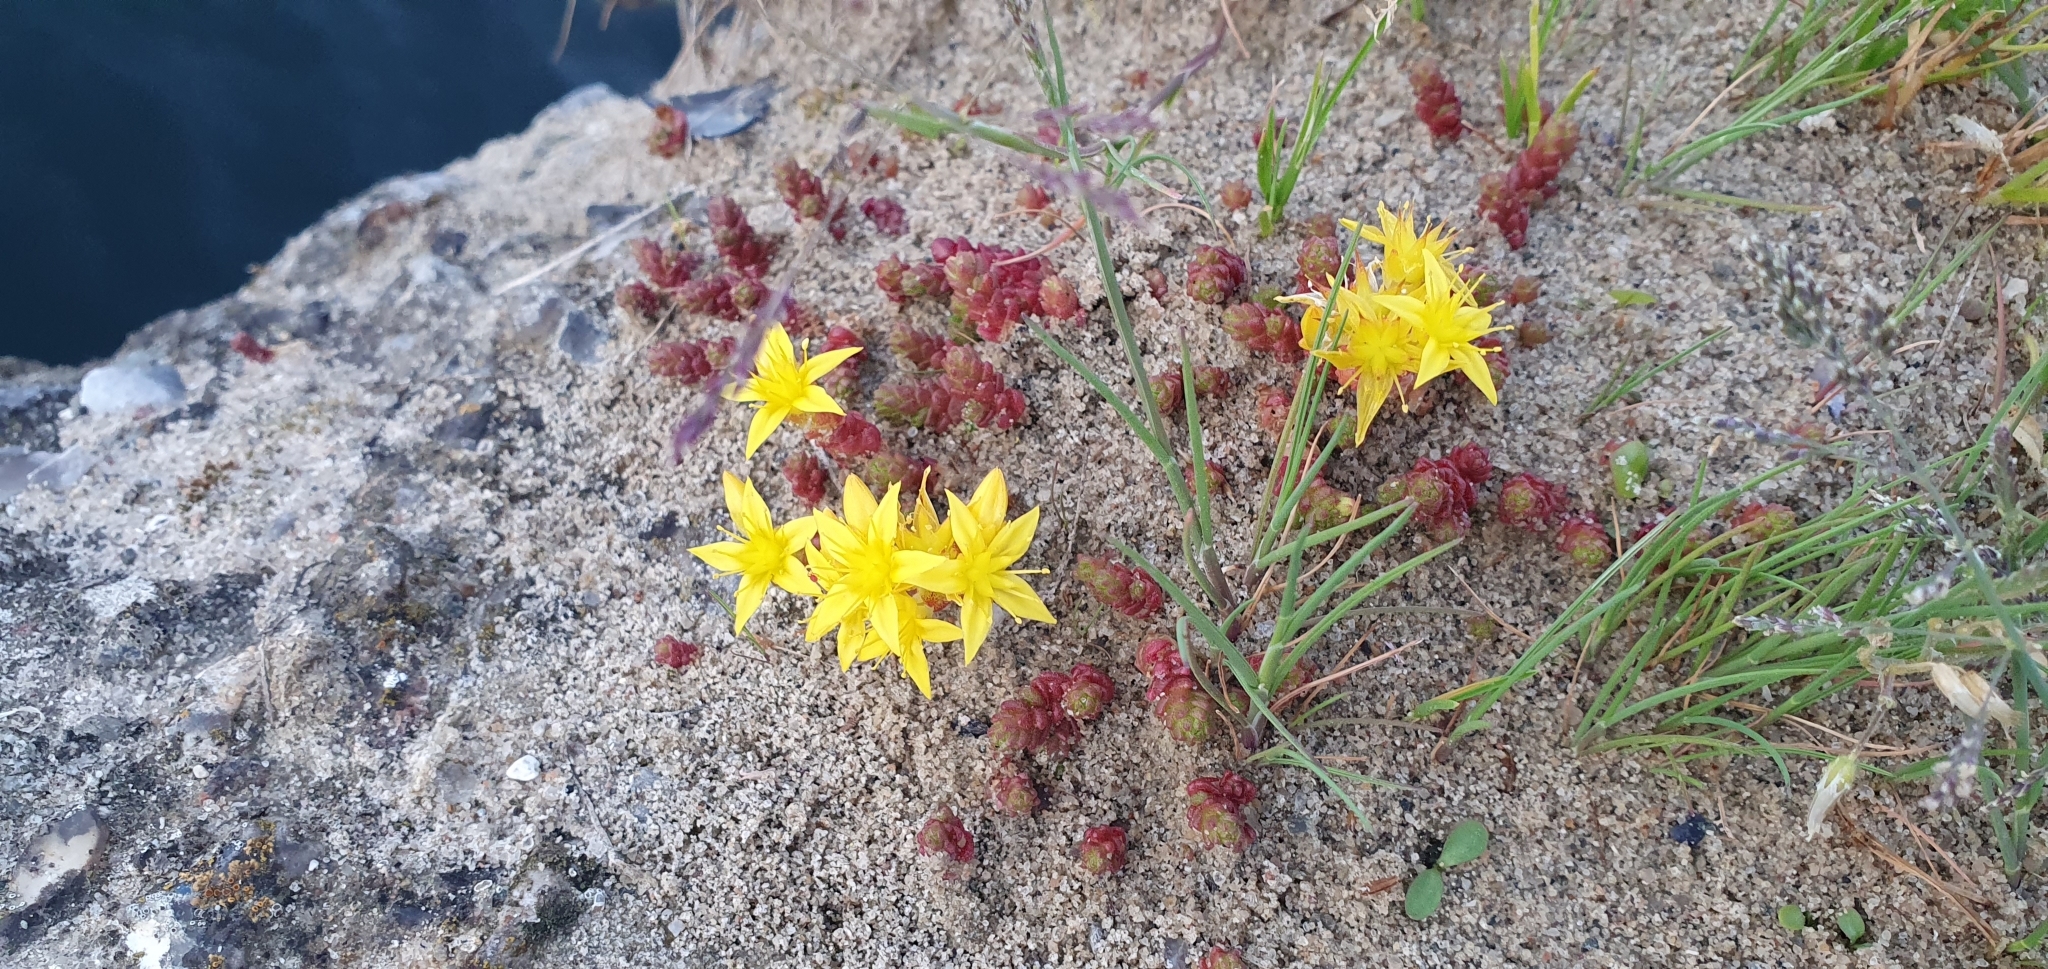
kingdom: Plantae
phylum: Tracheophyta
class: Magnoliopsida
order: Saxifragales
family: Crassulaceae
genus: Sedum
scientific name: Sedum acre
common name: Biting stonecrop
